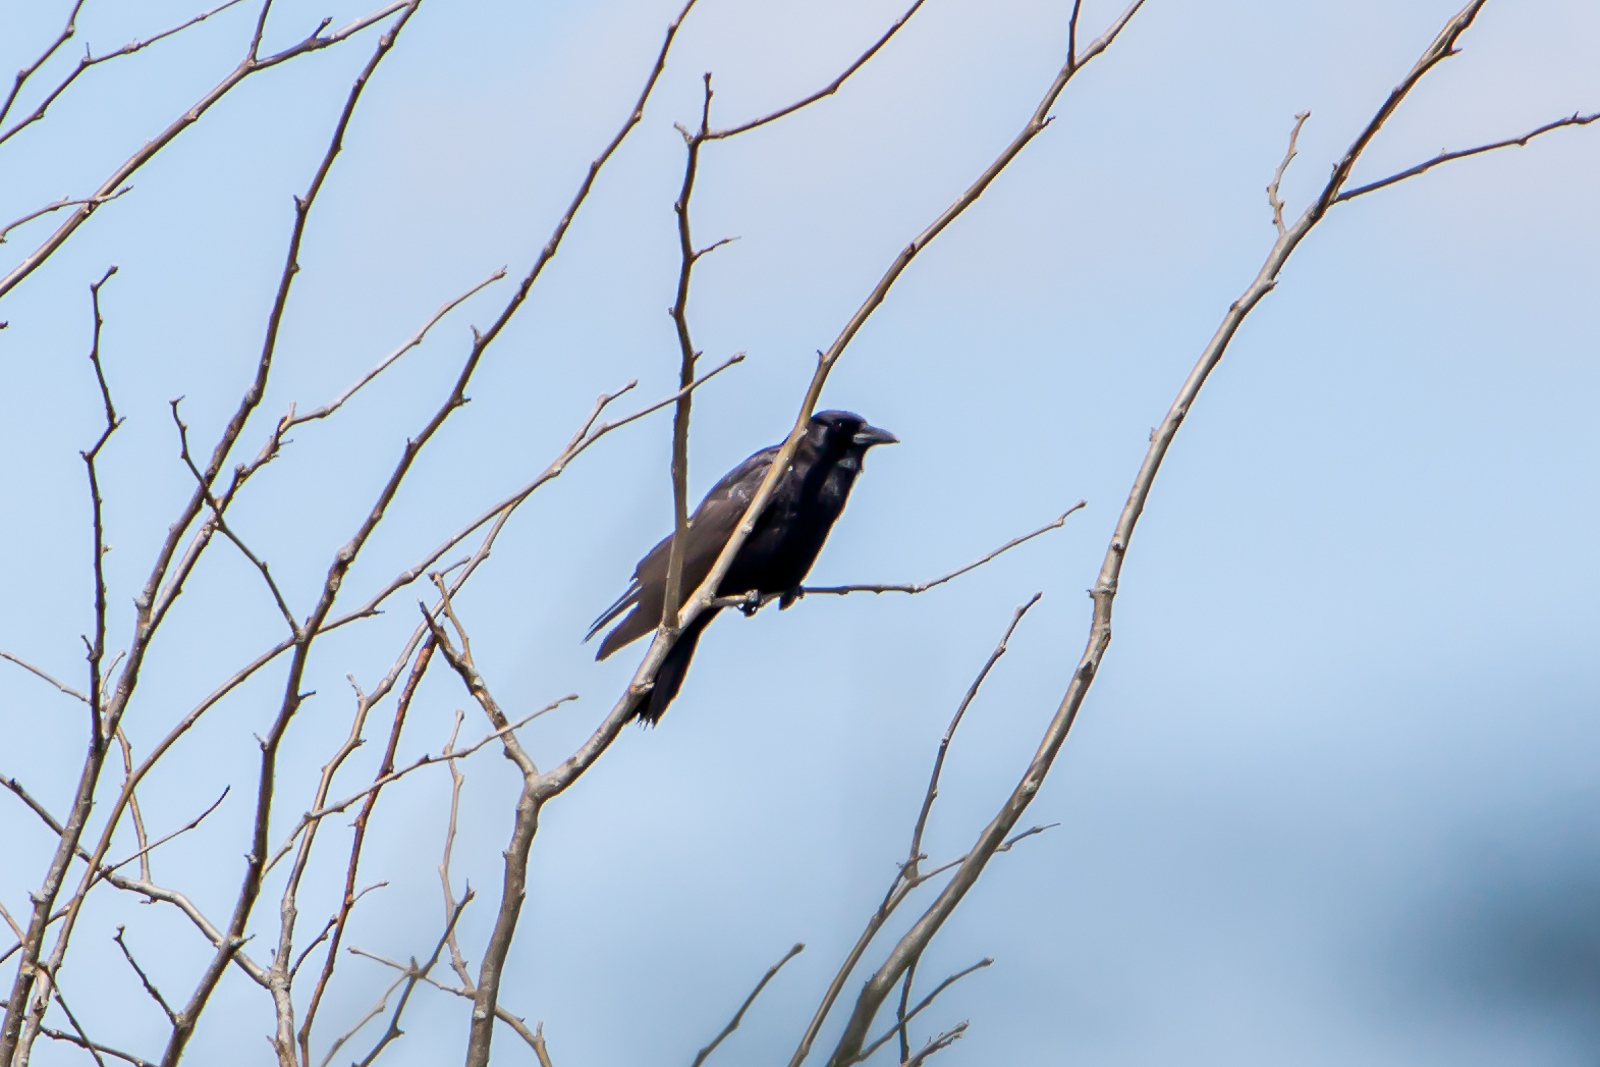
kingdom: Animalia
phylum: Chordata
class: Aves
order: Passeriformes
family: Corvidae
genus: Corvus
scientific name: Corvus brachyrhynchos
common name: American crow
